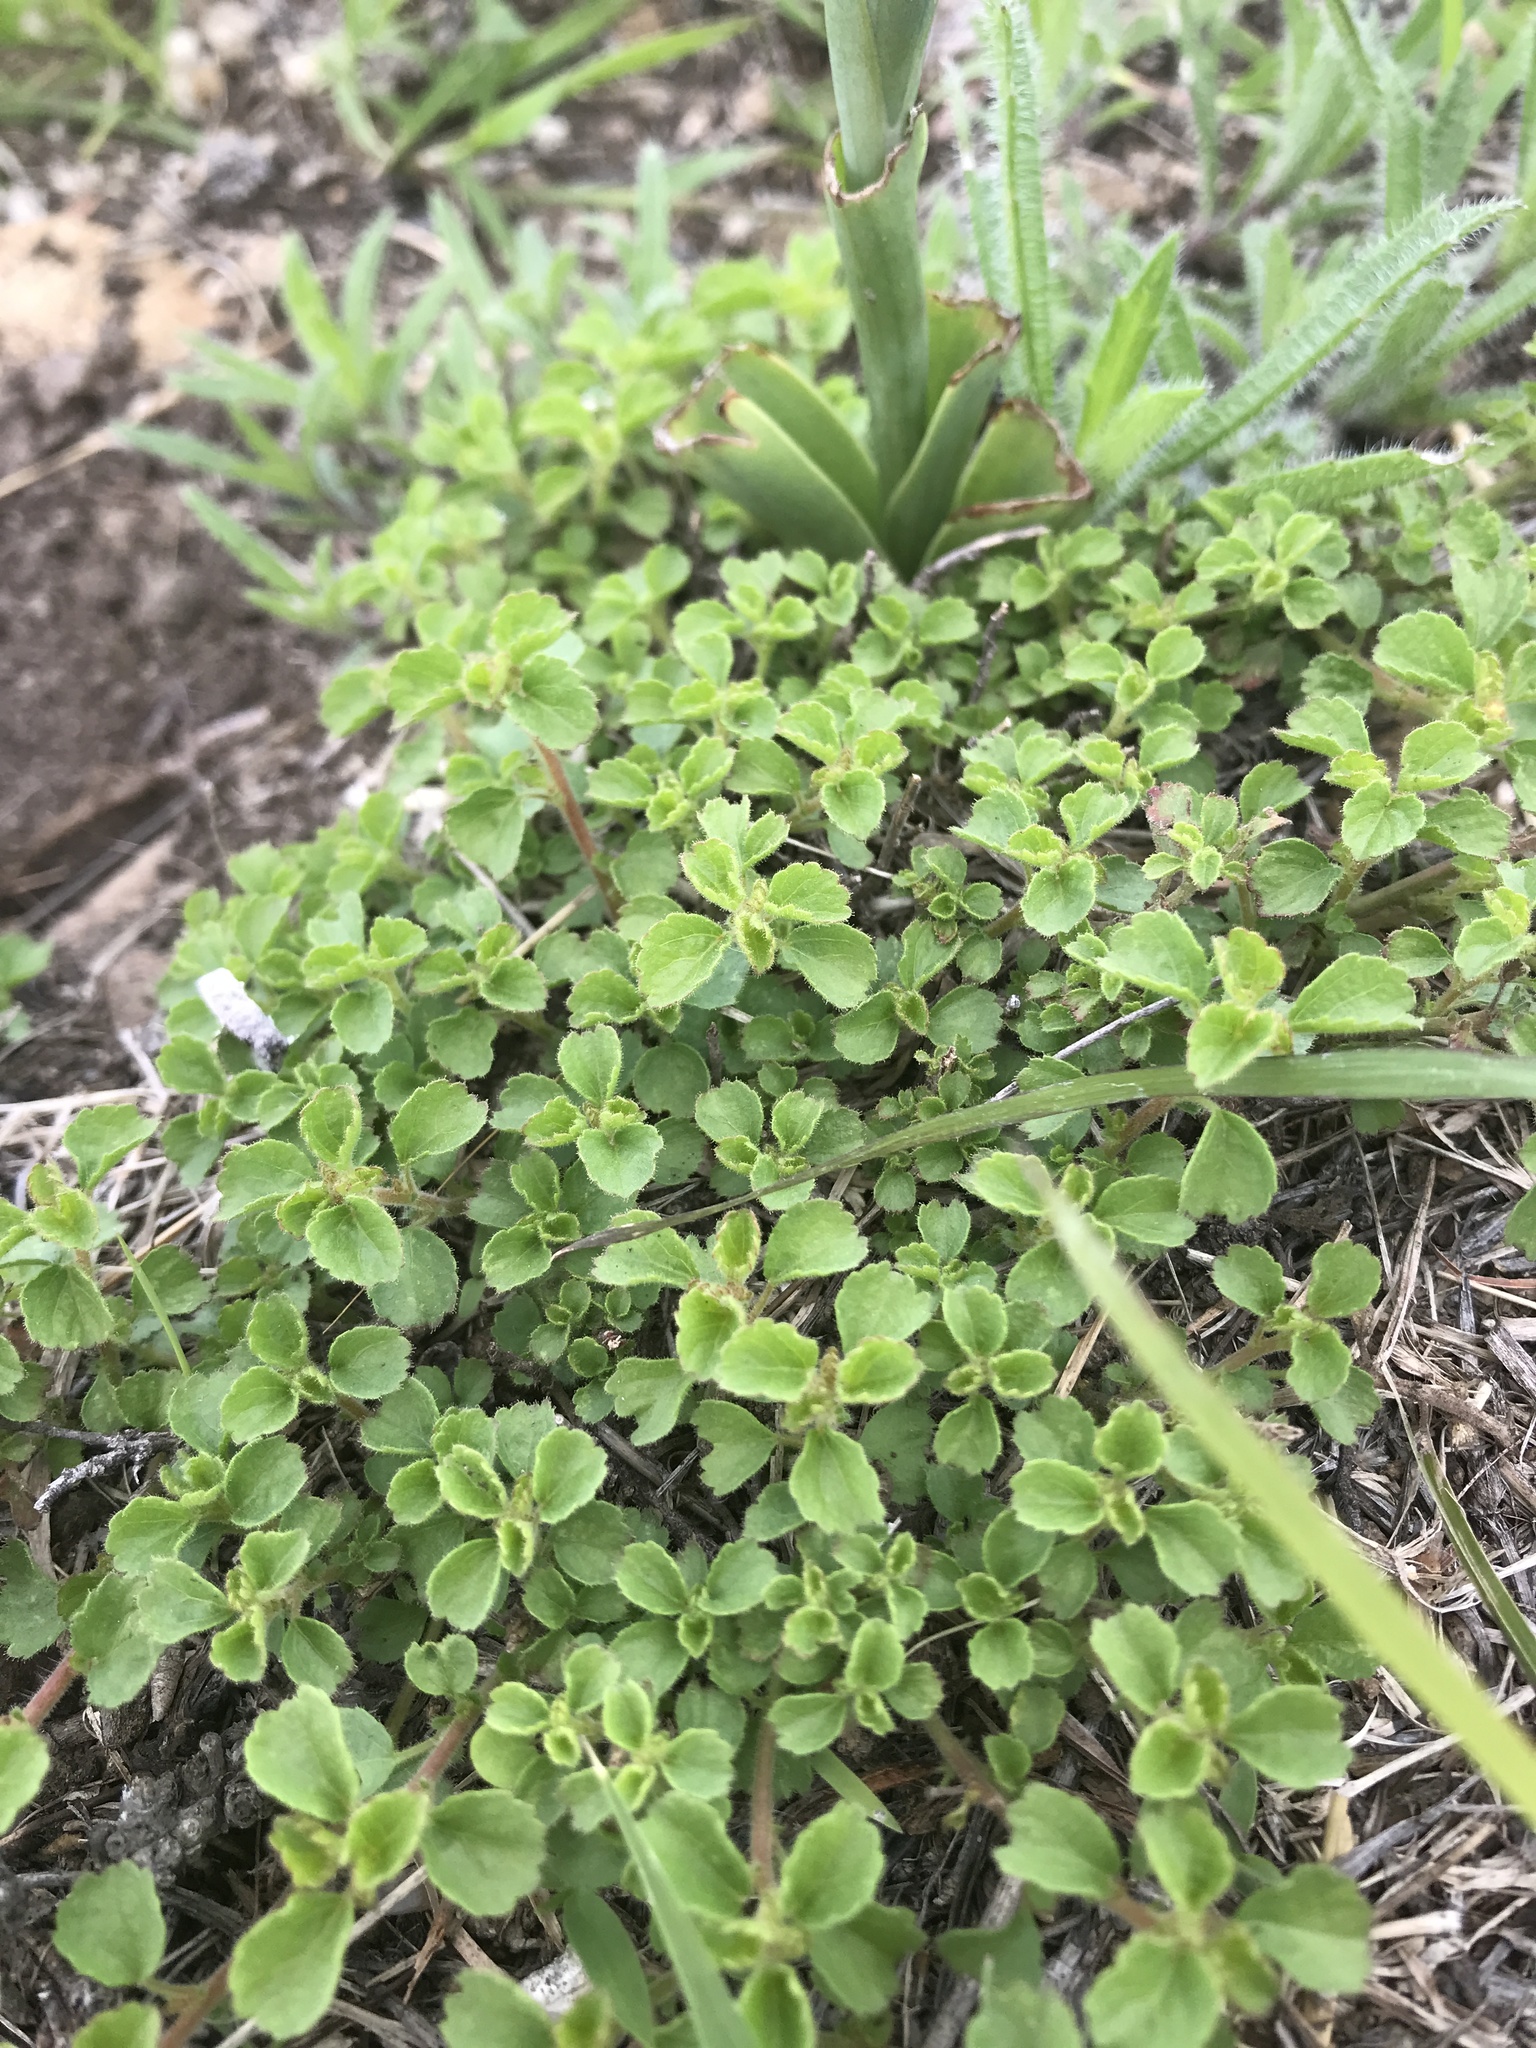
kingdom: Plantae
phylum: Tracheophyta
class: Magnoliopsida
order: Lamiales
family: Verbenaceae
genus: Phyla
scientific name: Phyla nodiflora
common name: Frogfruit
